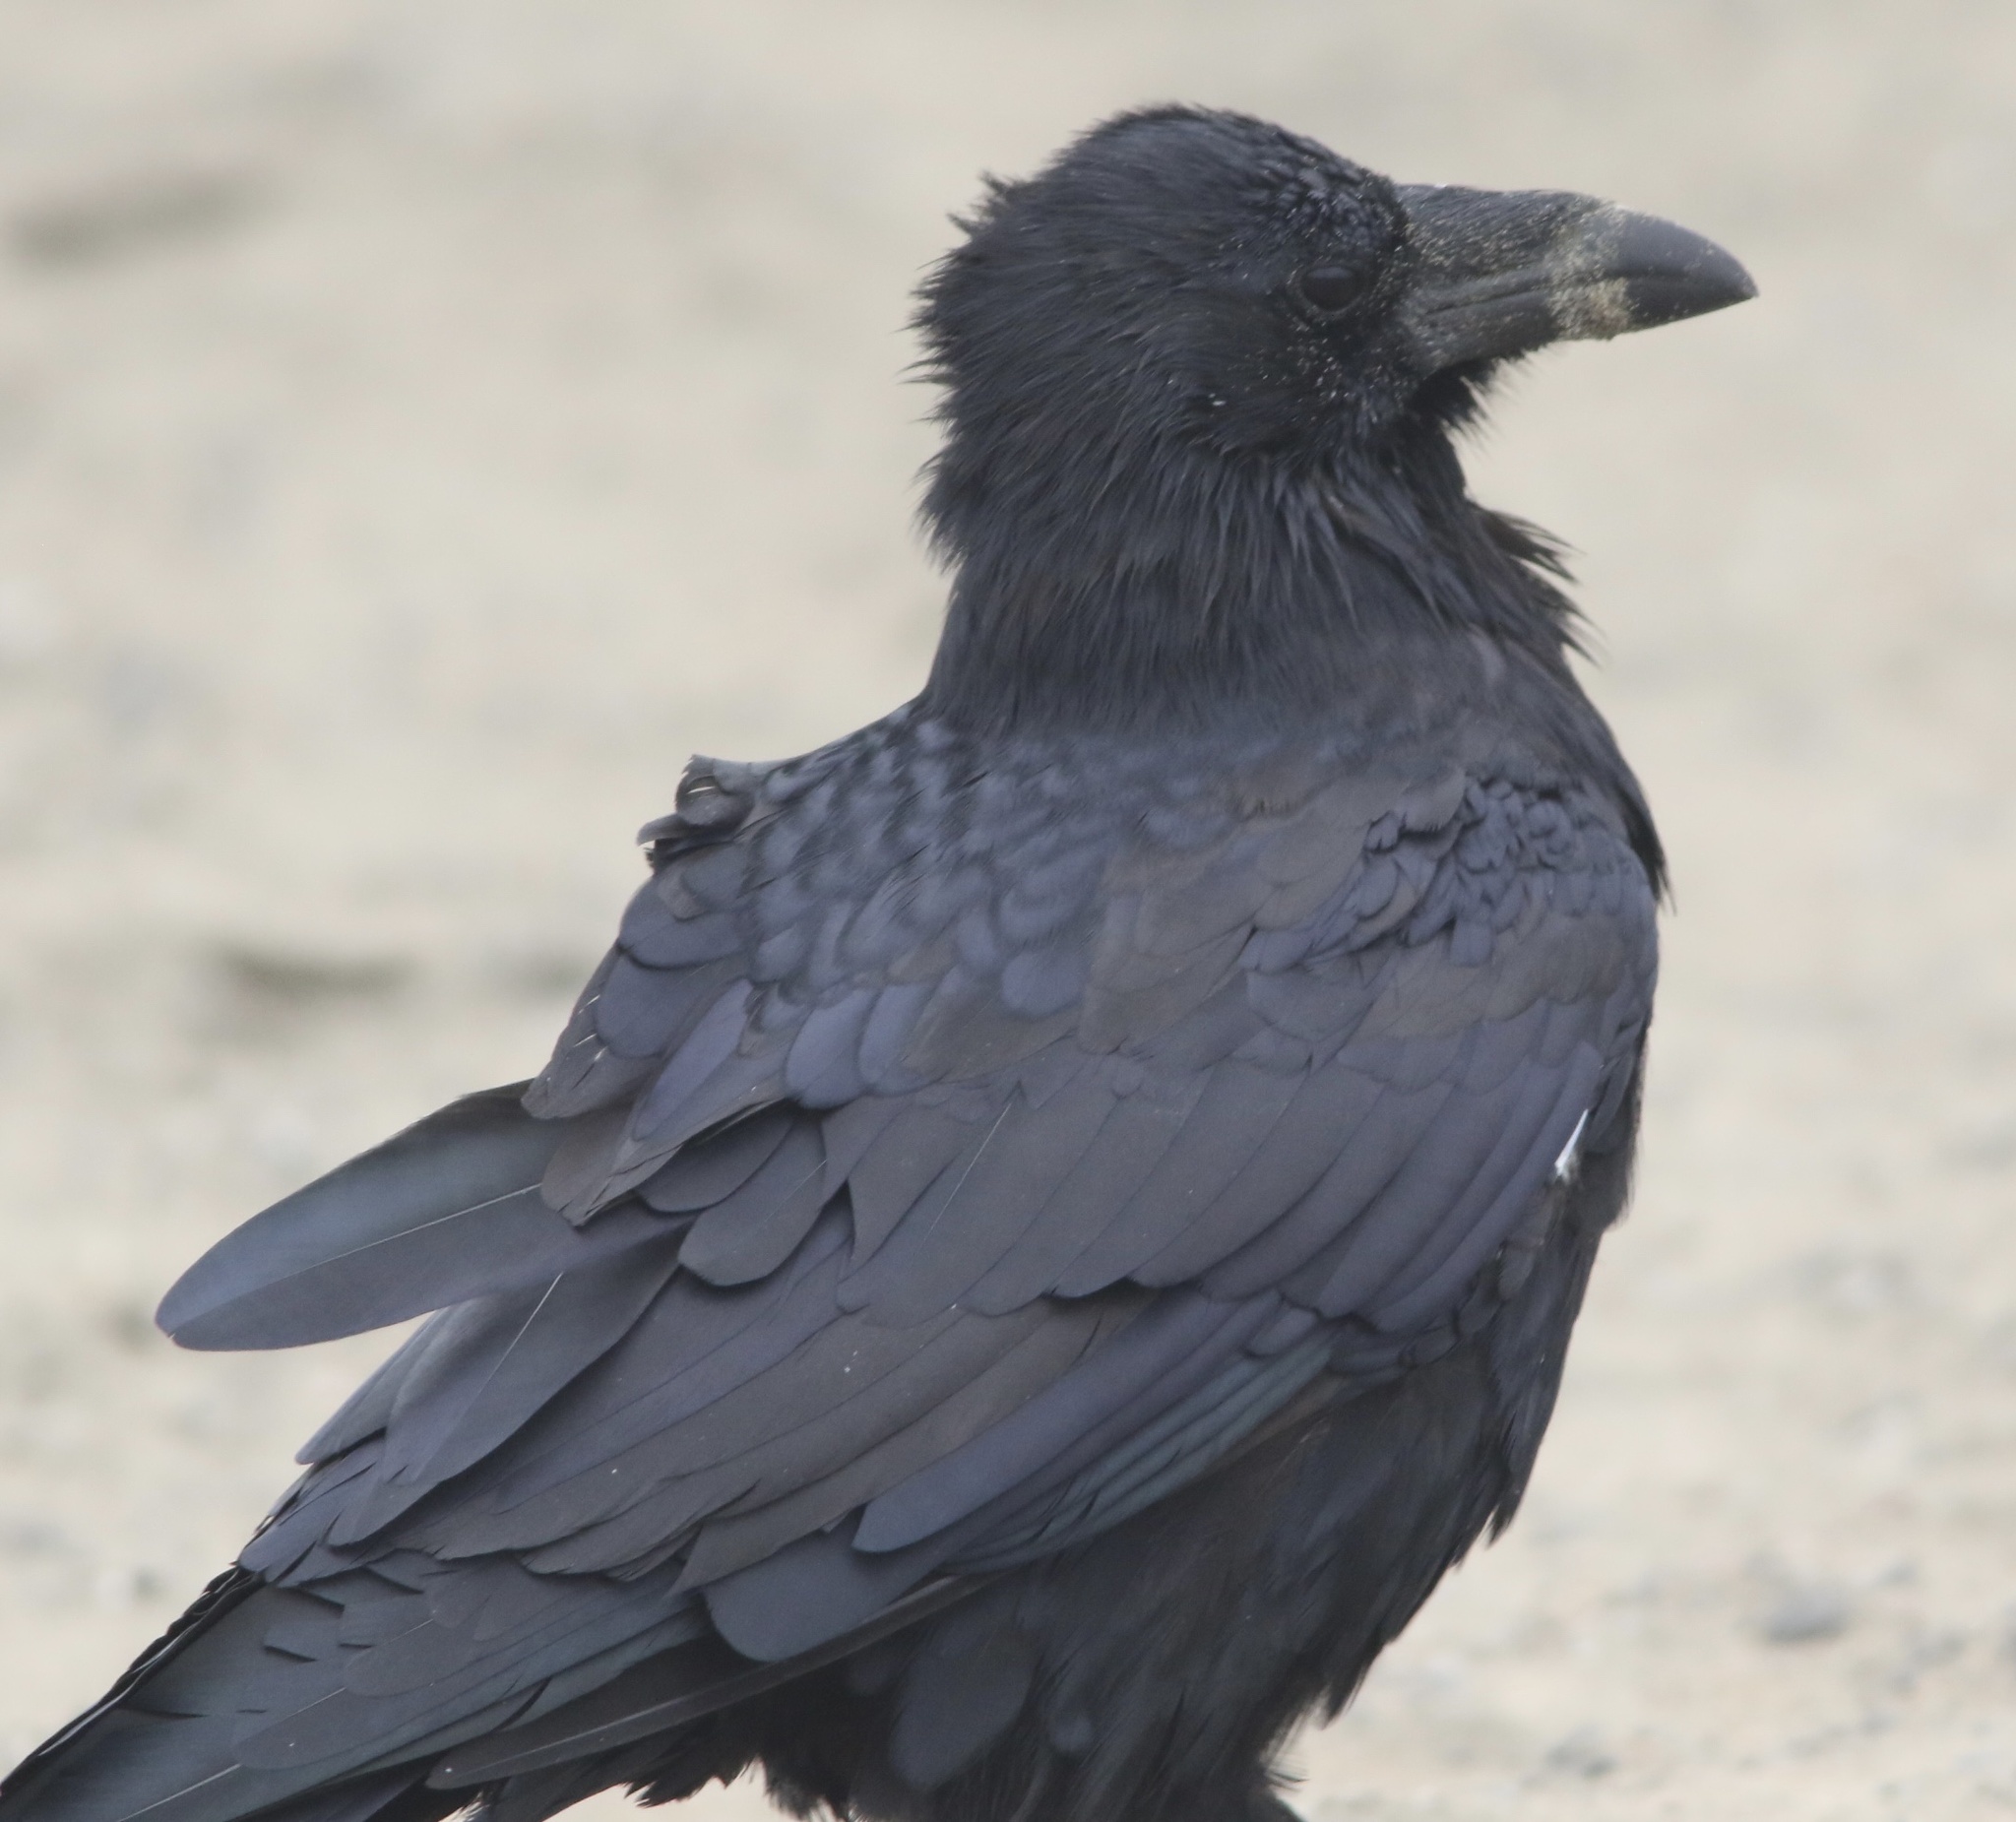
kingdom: Animalia
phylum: Chordata
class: Aves
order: Passeriformes
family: Corvidae
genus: Corvus
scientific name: Corvus corax
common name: Common raven
